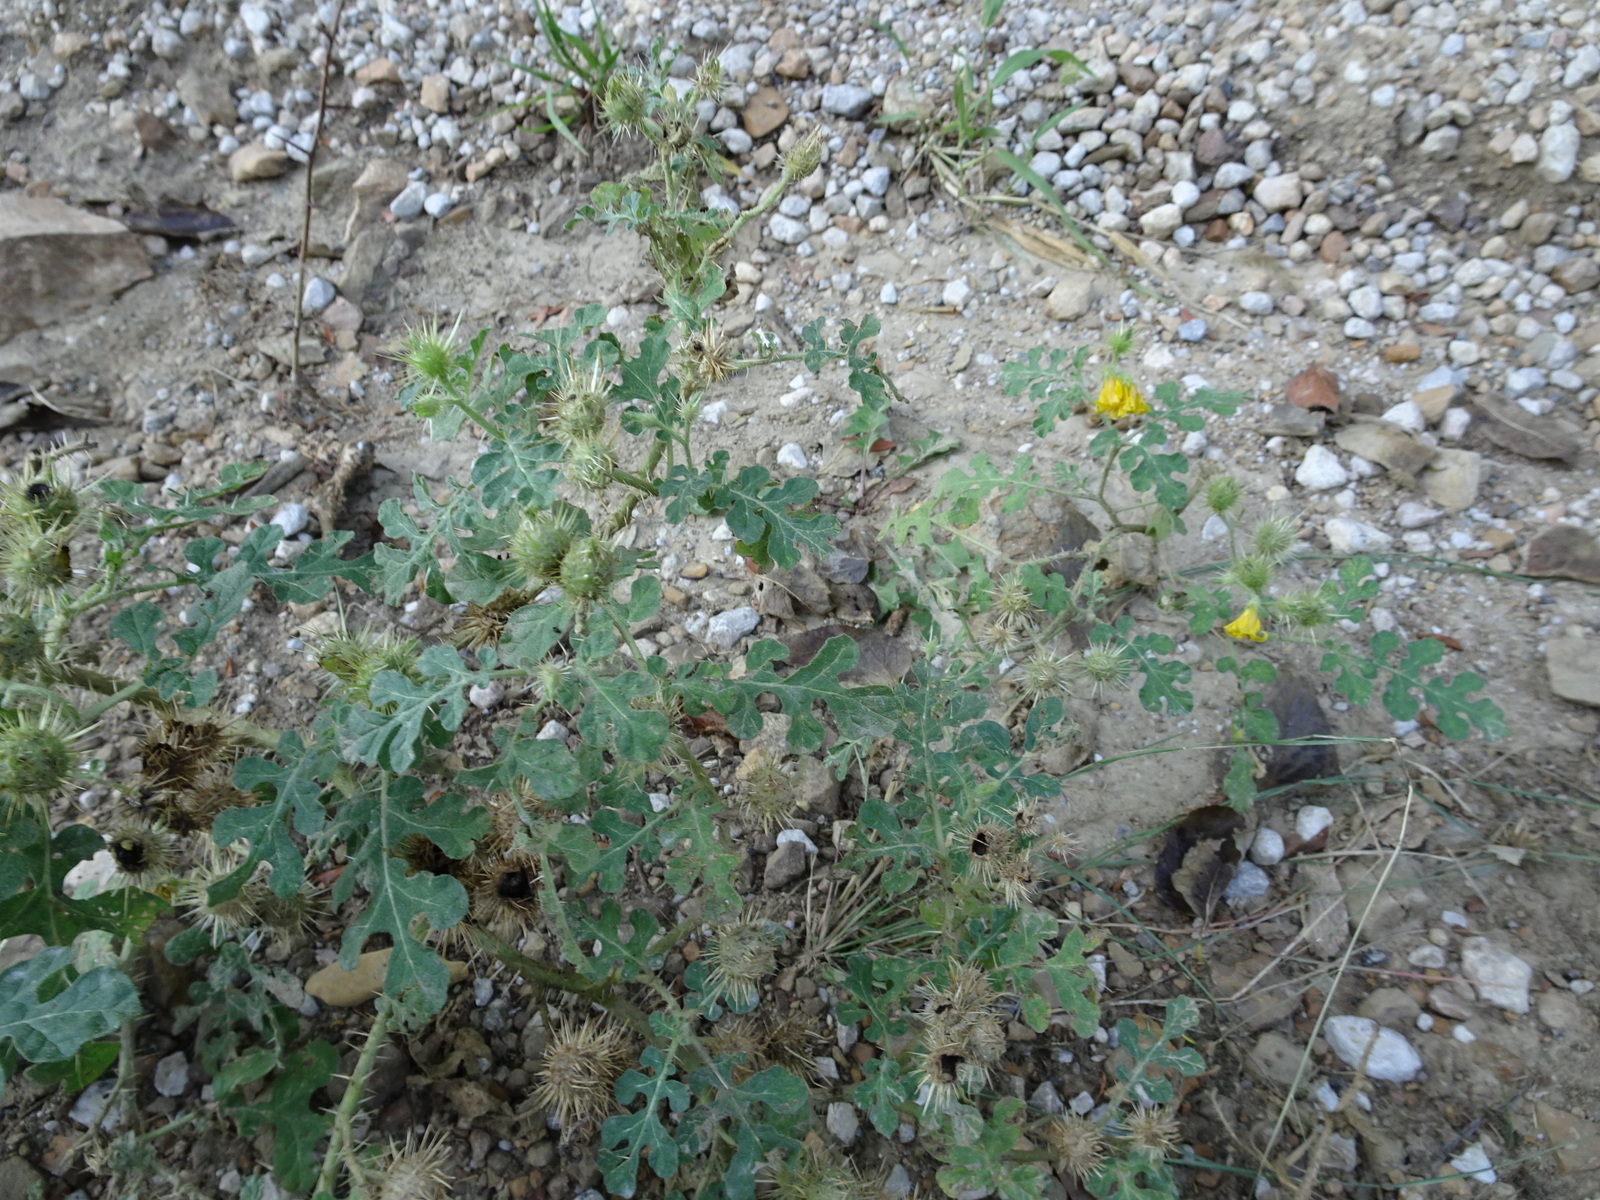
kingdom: Plantae
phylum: Tracheophyta
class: Magnoliopsida
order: Solanales
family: Solanaceae
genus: Solanum
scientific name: Solanum angustifolium
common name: Buffalobur nightshade
